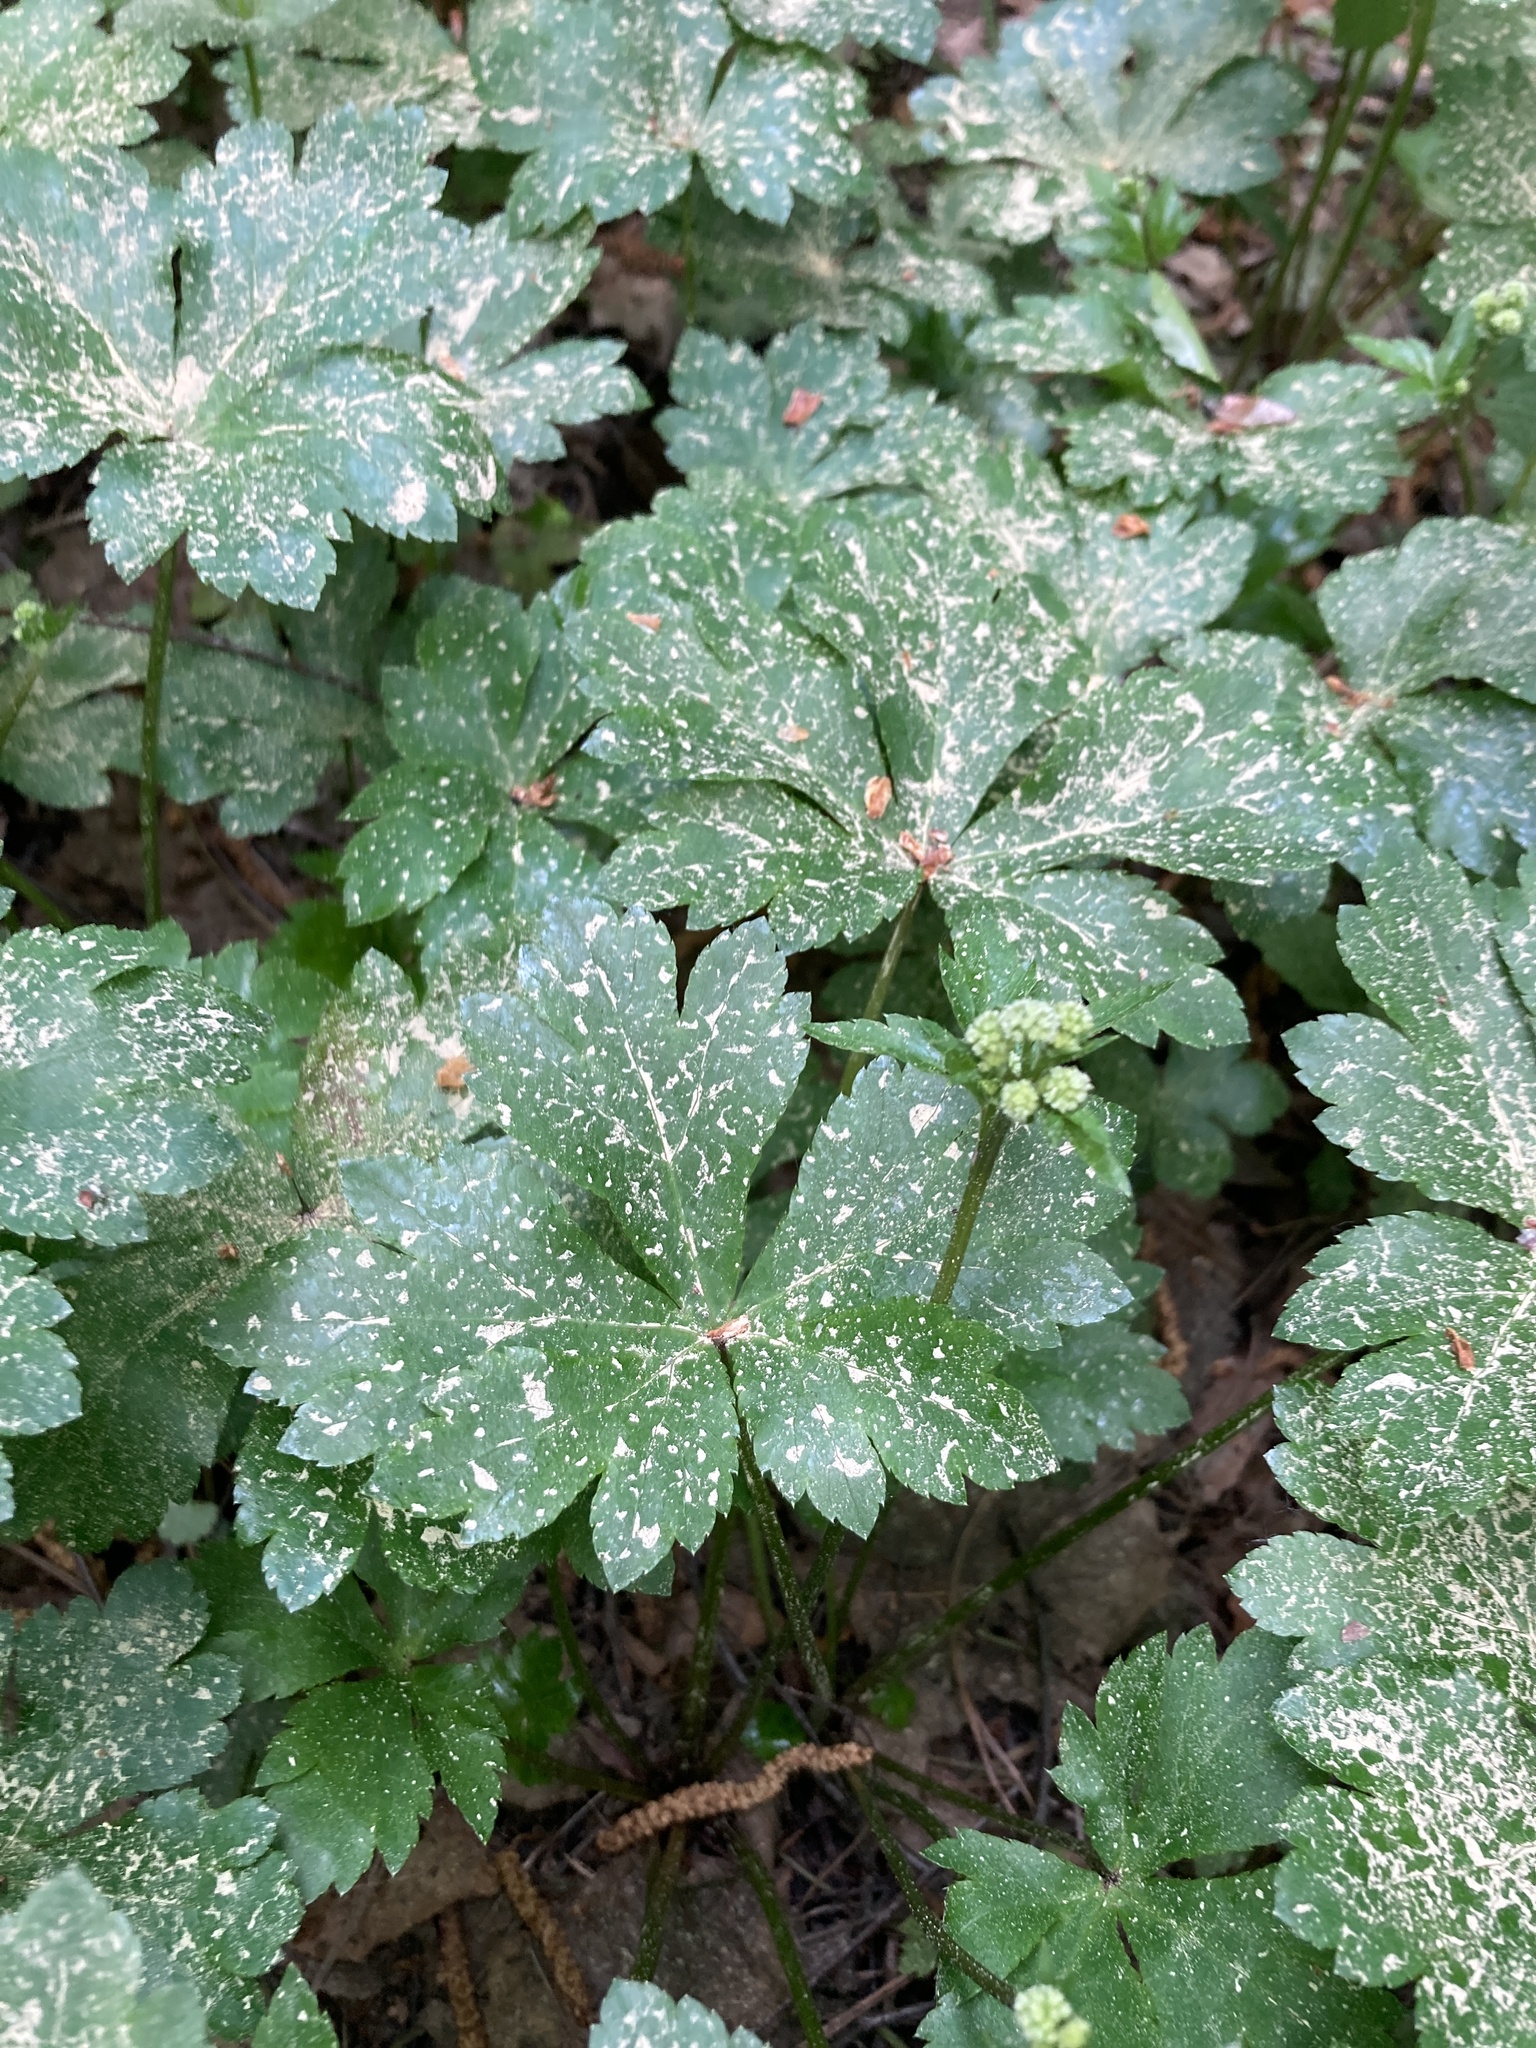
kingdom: Plantae
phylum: Tracheophyta
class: Magnoliopsida
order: Apiales
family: Apiaceae
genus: Sanicula
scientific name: Sanicula europaea
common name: Sanicle
